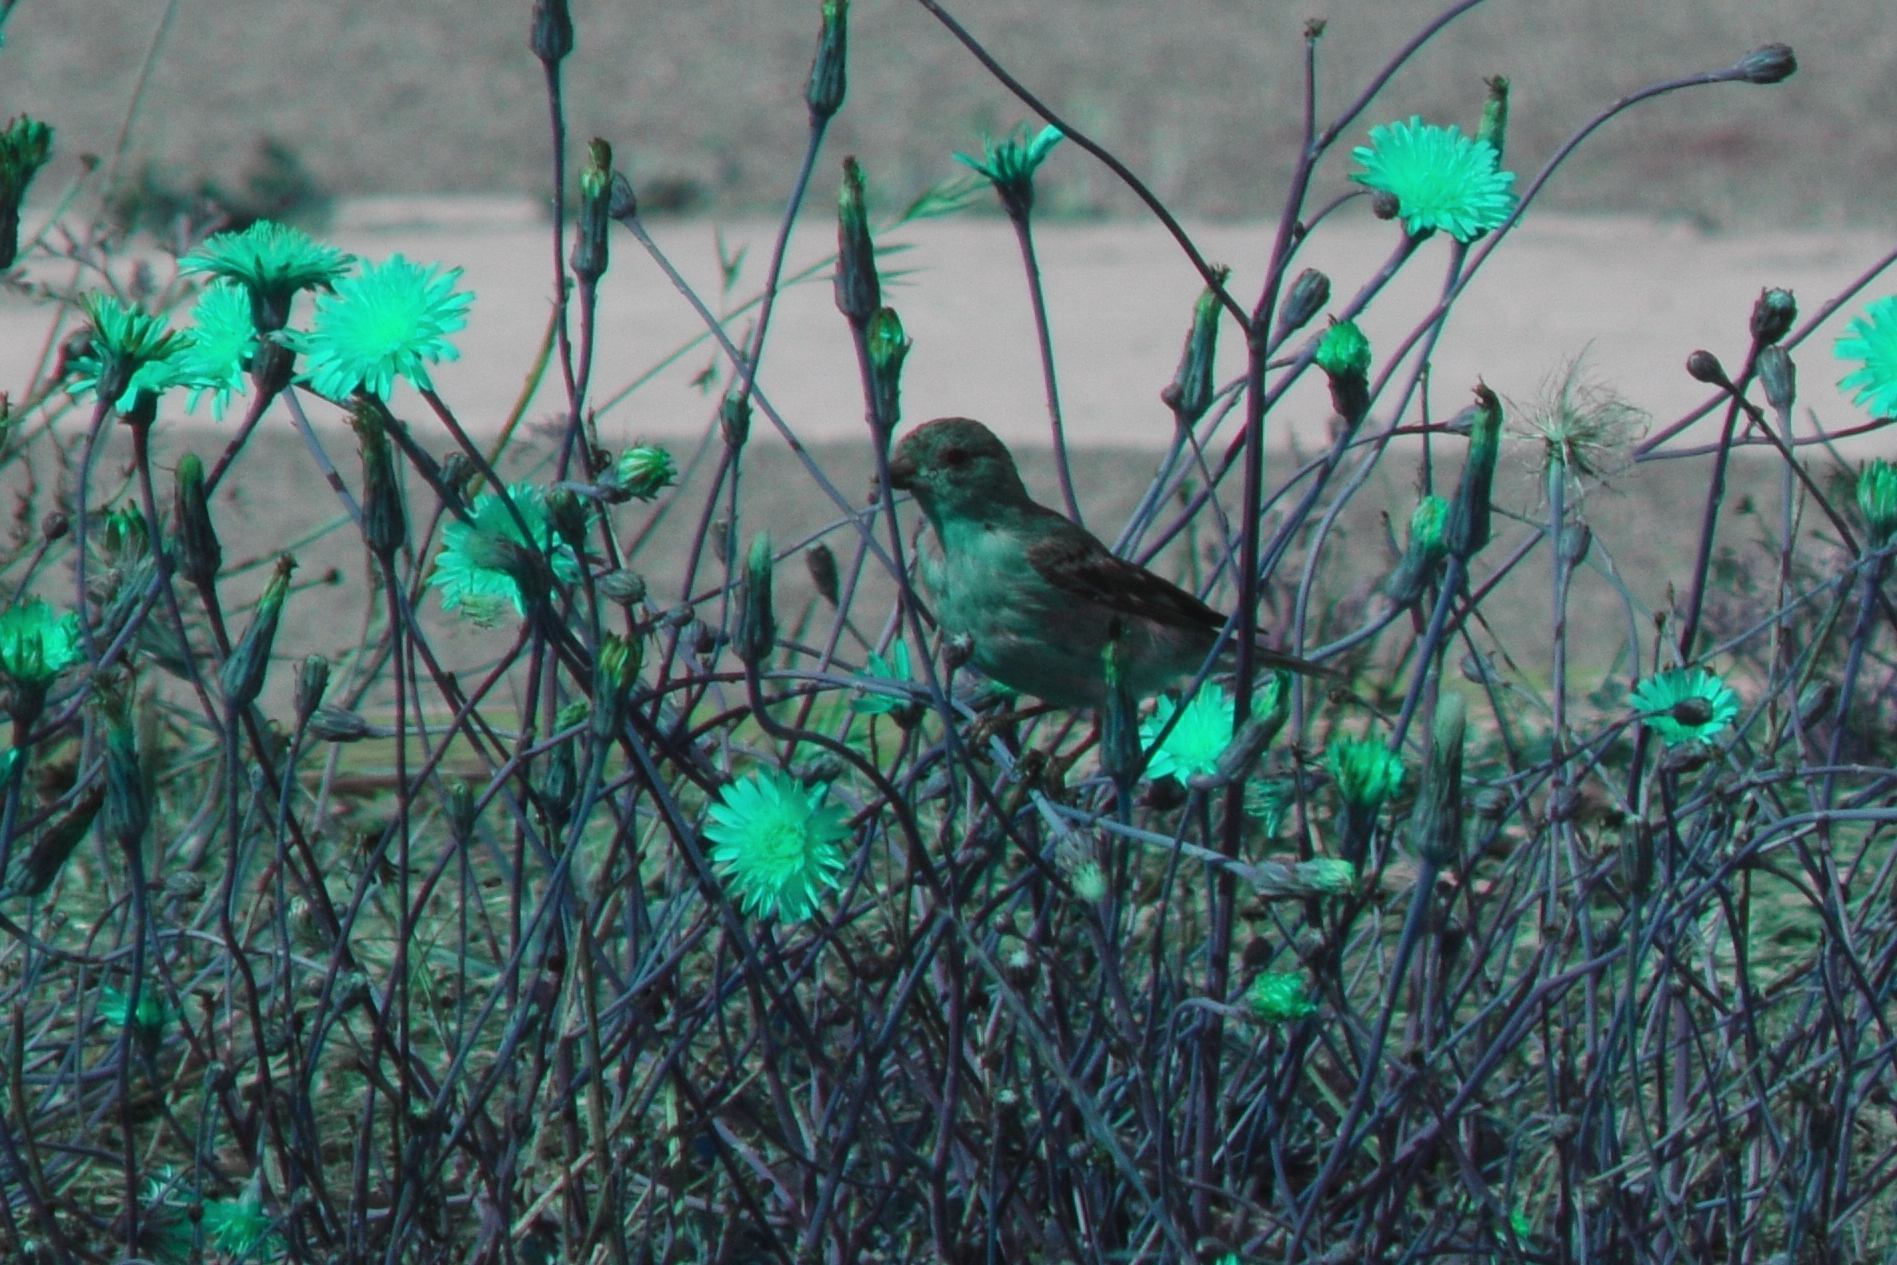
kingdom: Animalia
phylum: Chordata
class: Aves
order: Passeriformes
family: Fringillidae
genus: Spinus
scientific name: Spinus psaltria
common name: Lesser goldfinch
